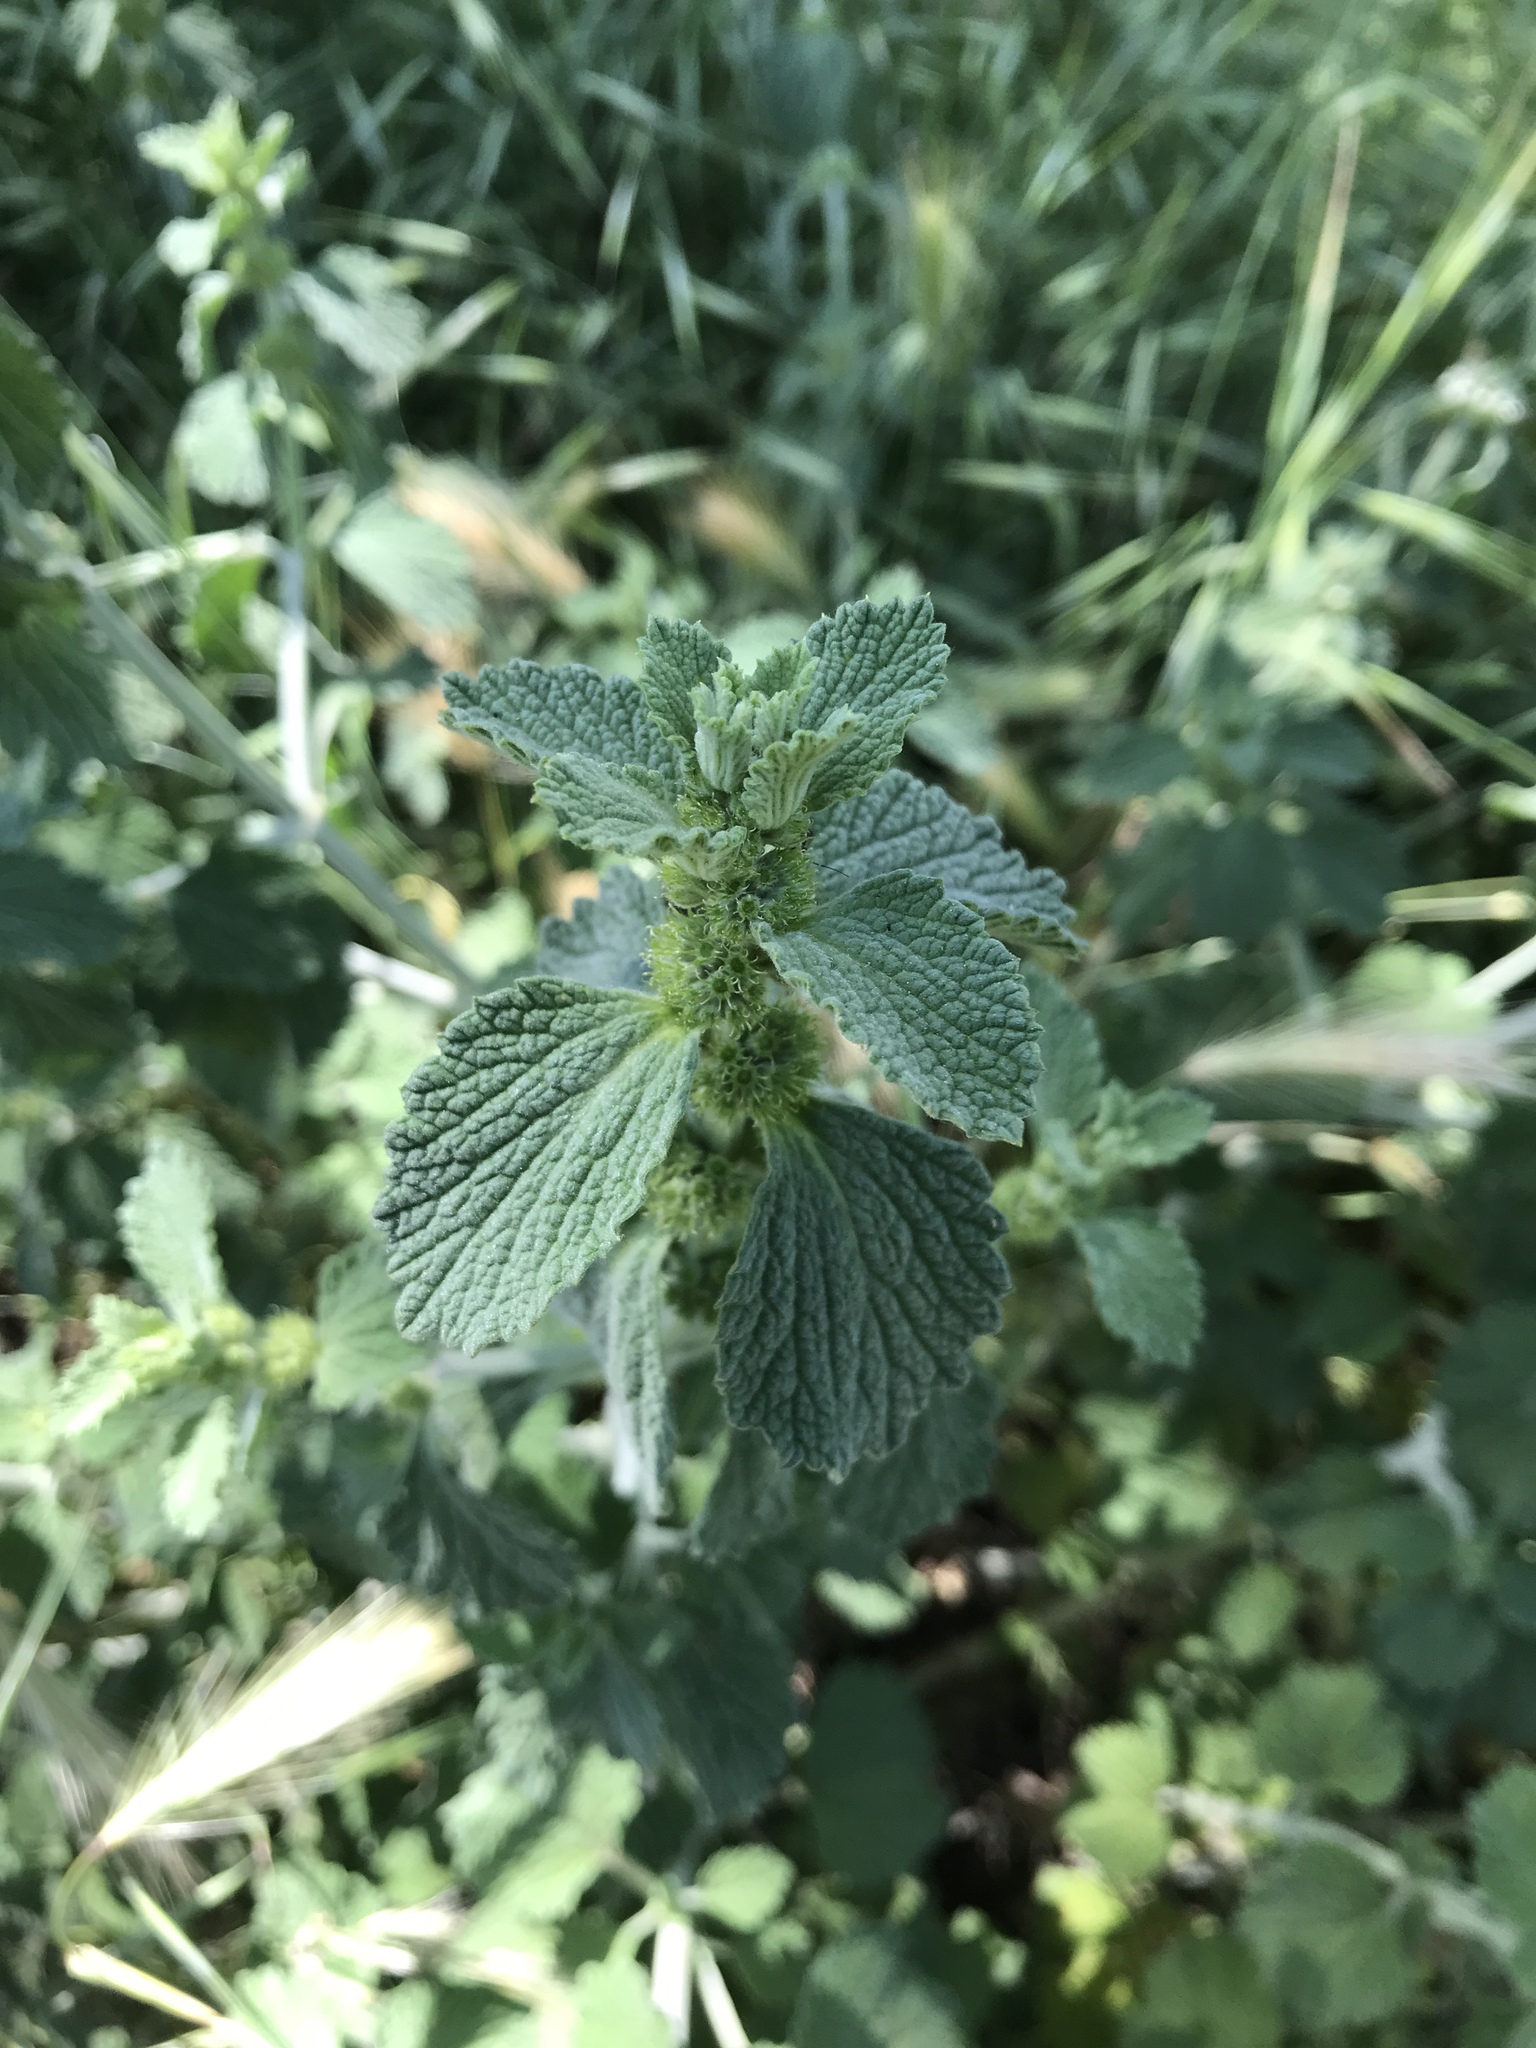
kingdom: Plantae
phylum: Tracheophyta
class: Magnoliopsida
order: Lamiales
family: Lamiaceae
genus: Marrubium
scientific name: Marrubium vulgare
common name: Horehound
